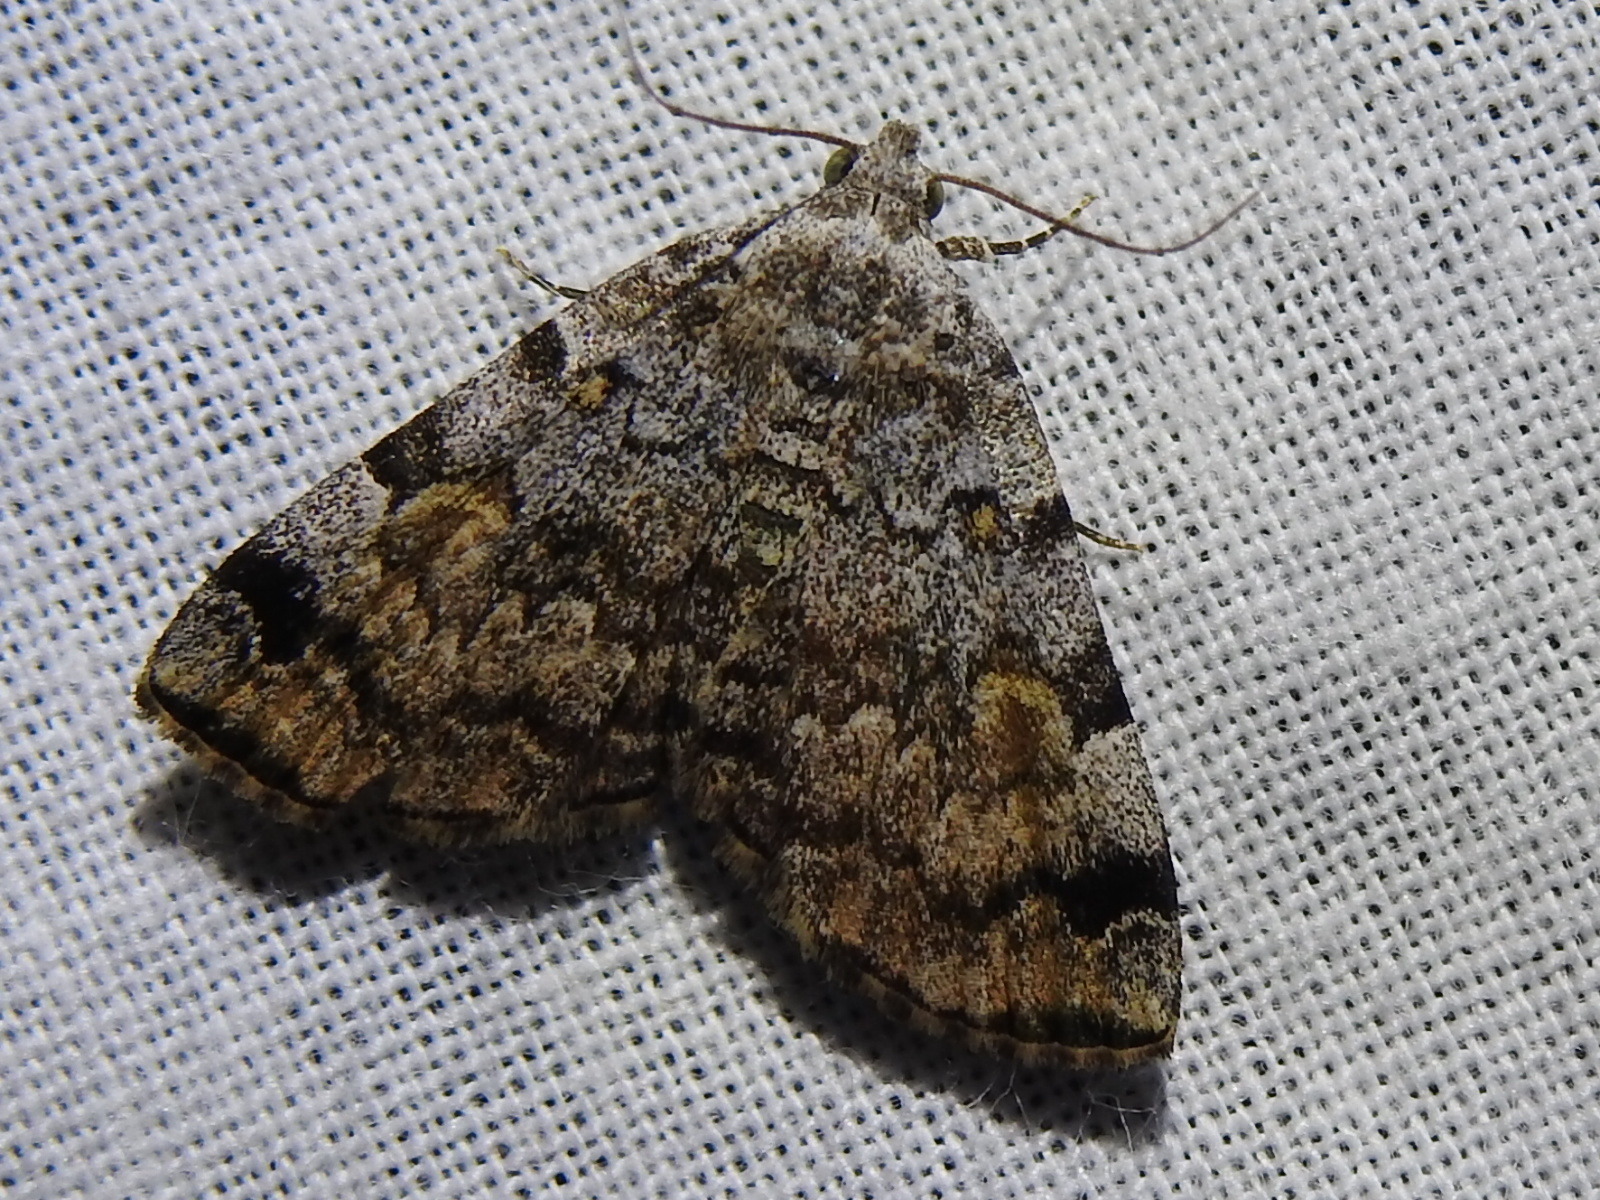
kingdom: Animalia
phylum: Arthropoda
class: Insecta
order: Lepidoptera
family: Erebidae
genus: Idia
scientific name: Idia americalis
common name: American idia moth
